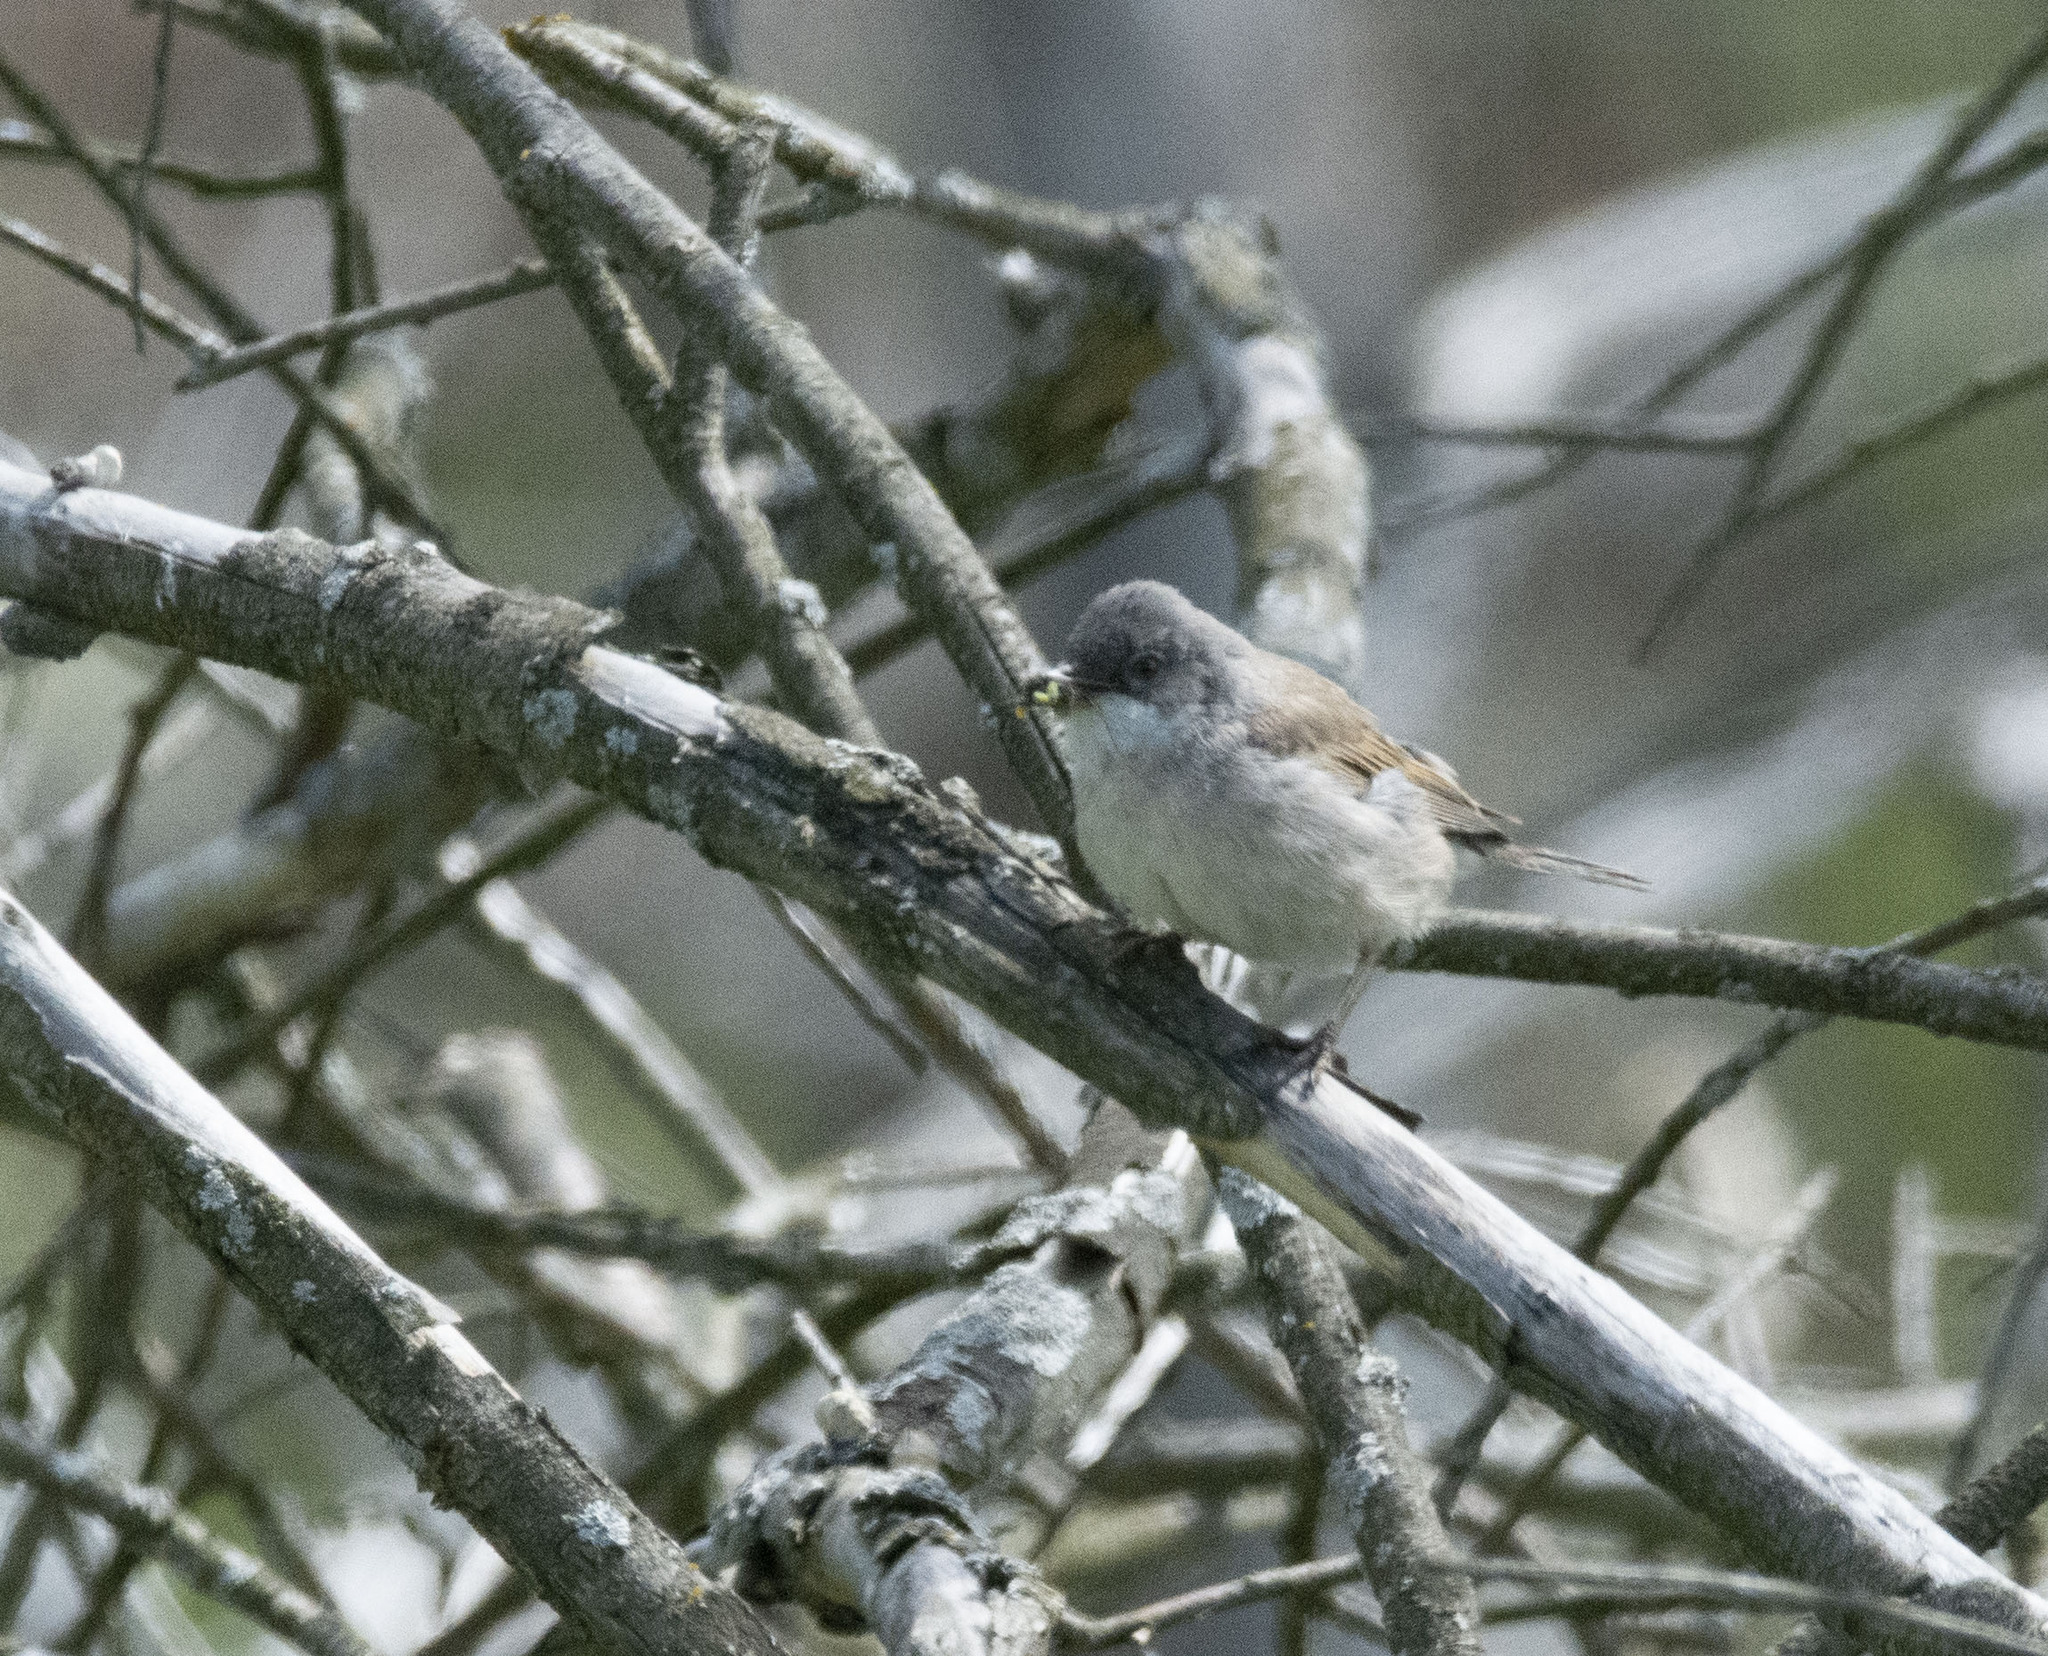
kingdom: Animalia
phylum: Chordata
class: Aves
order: Passeriformes
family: Sylviidae
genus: Sylvia
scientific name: Sylvia curruca
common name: Lesser whitethroat
